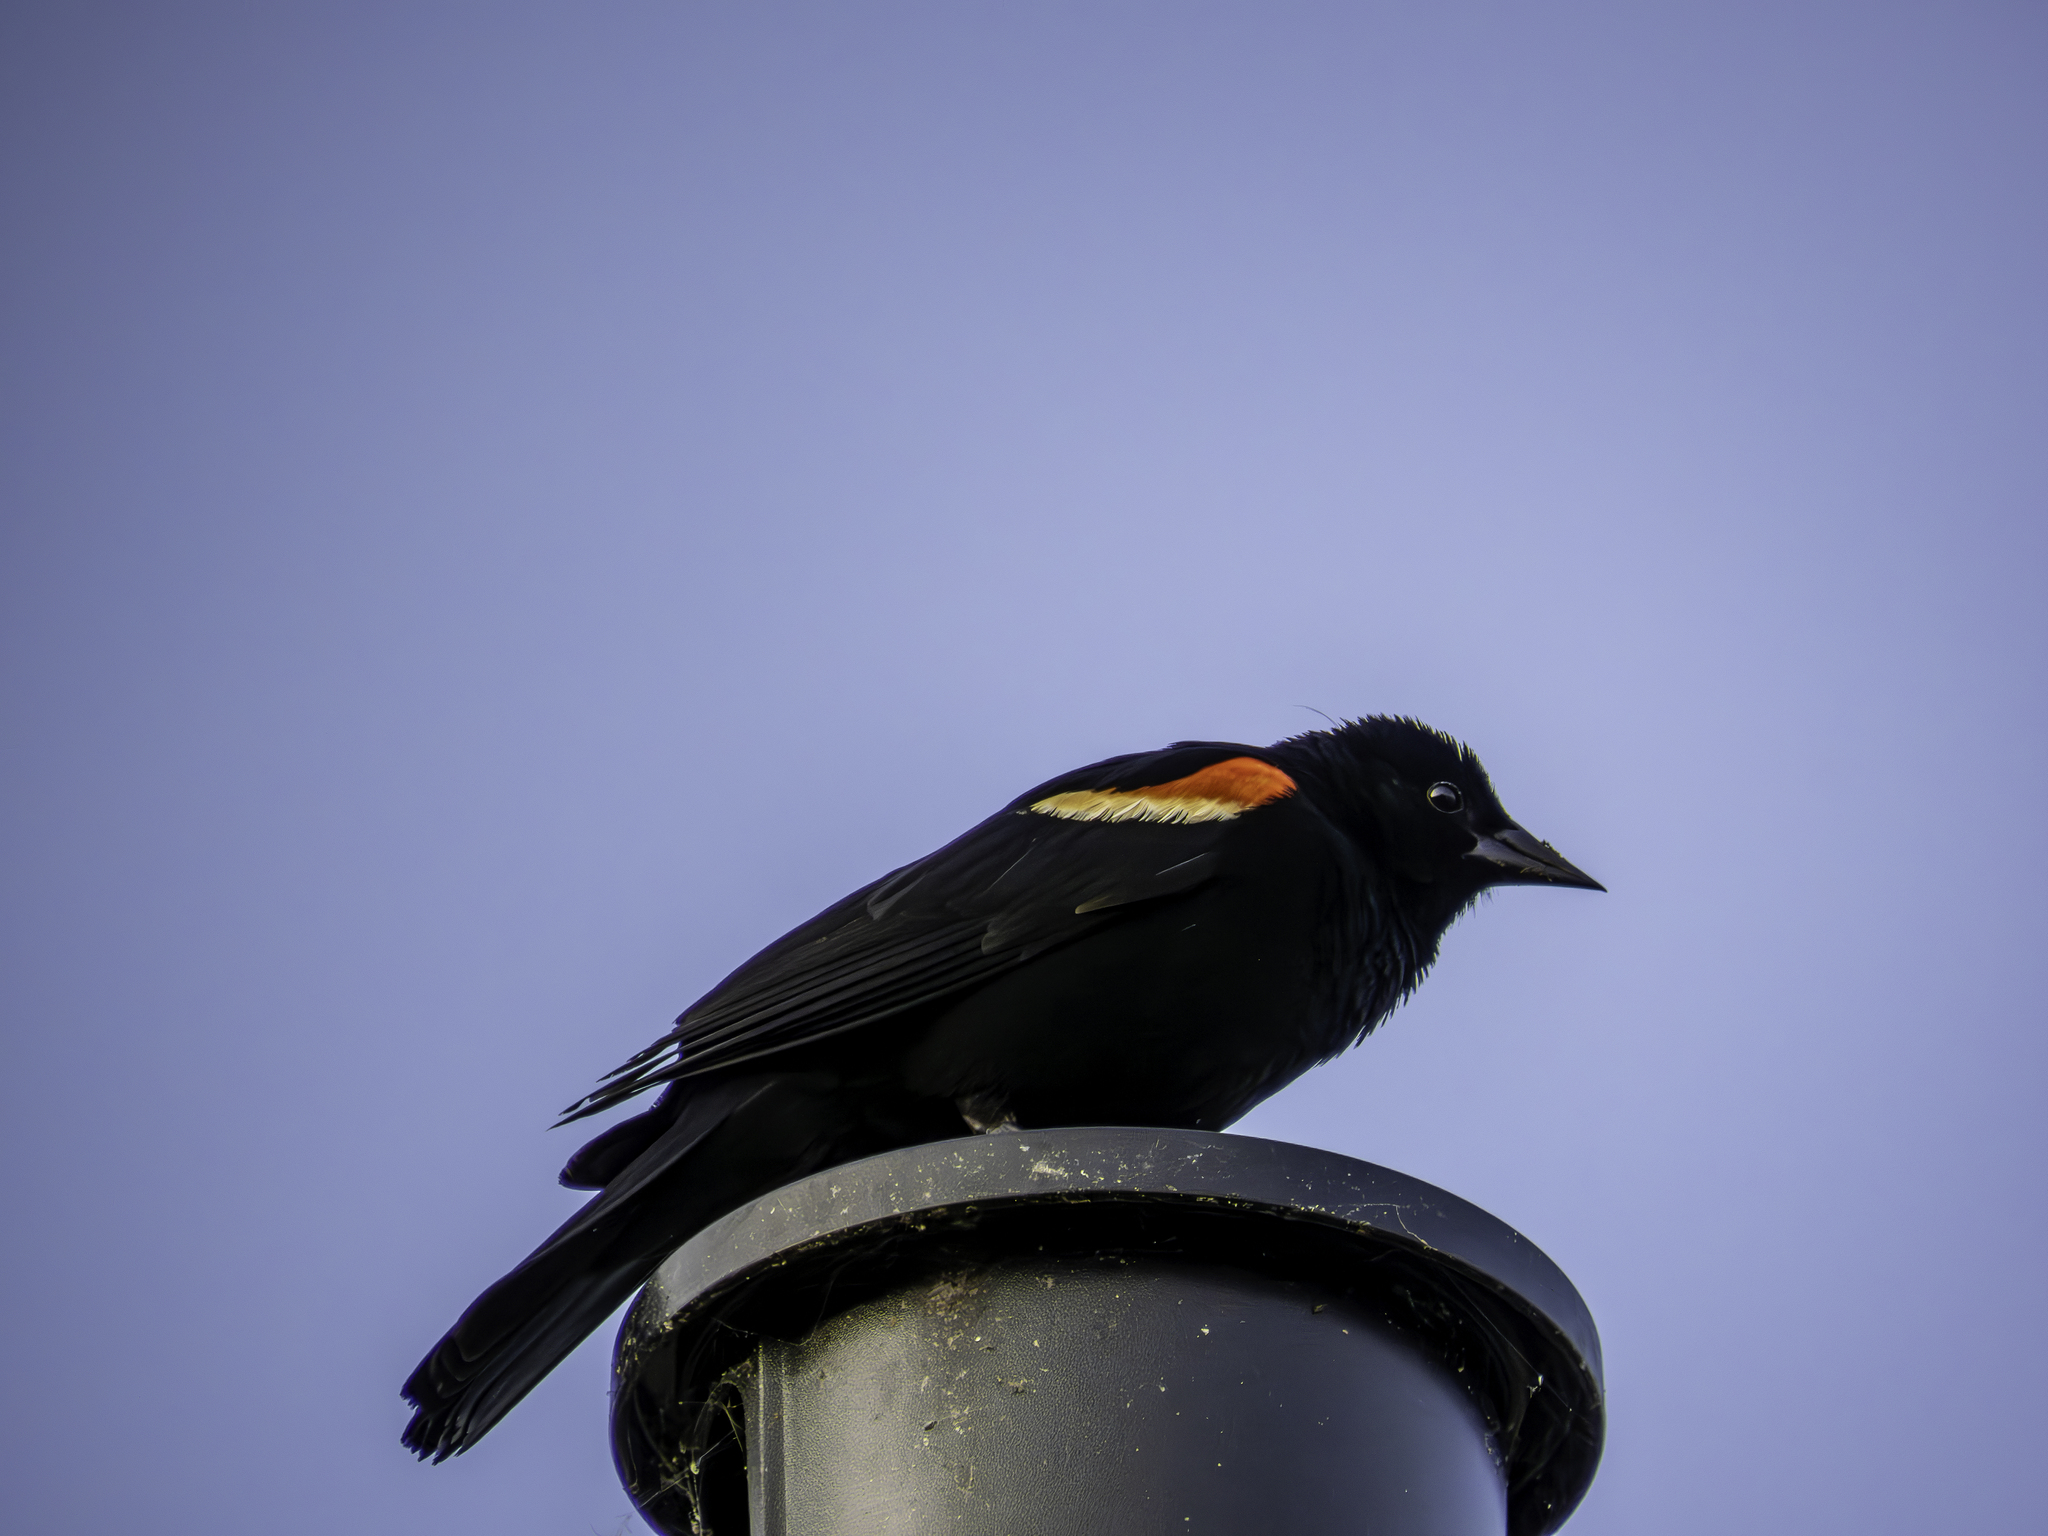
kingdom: Animalia
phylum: Chordata
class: Aves
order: Passeriformes
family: Icteridae
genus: Agelaius
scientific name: Agelaius phoeniceus
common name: Red-winged blackbird
